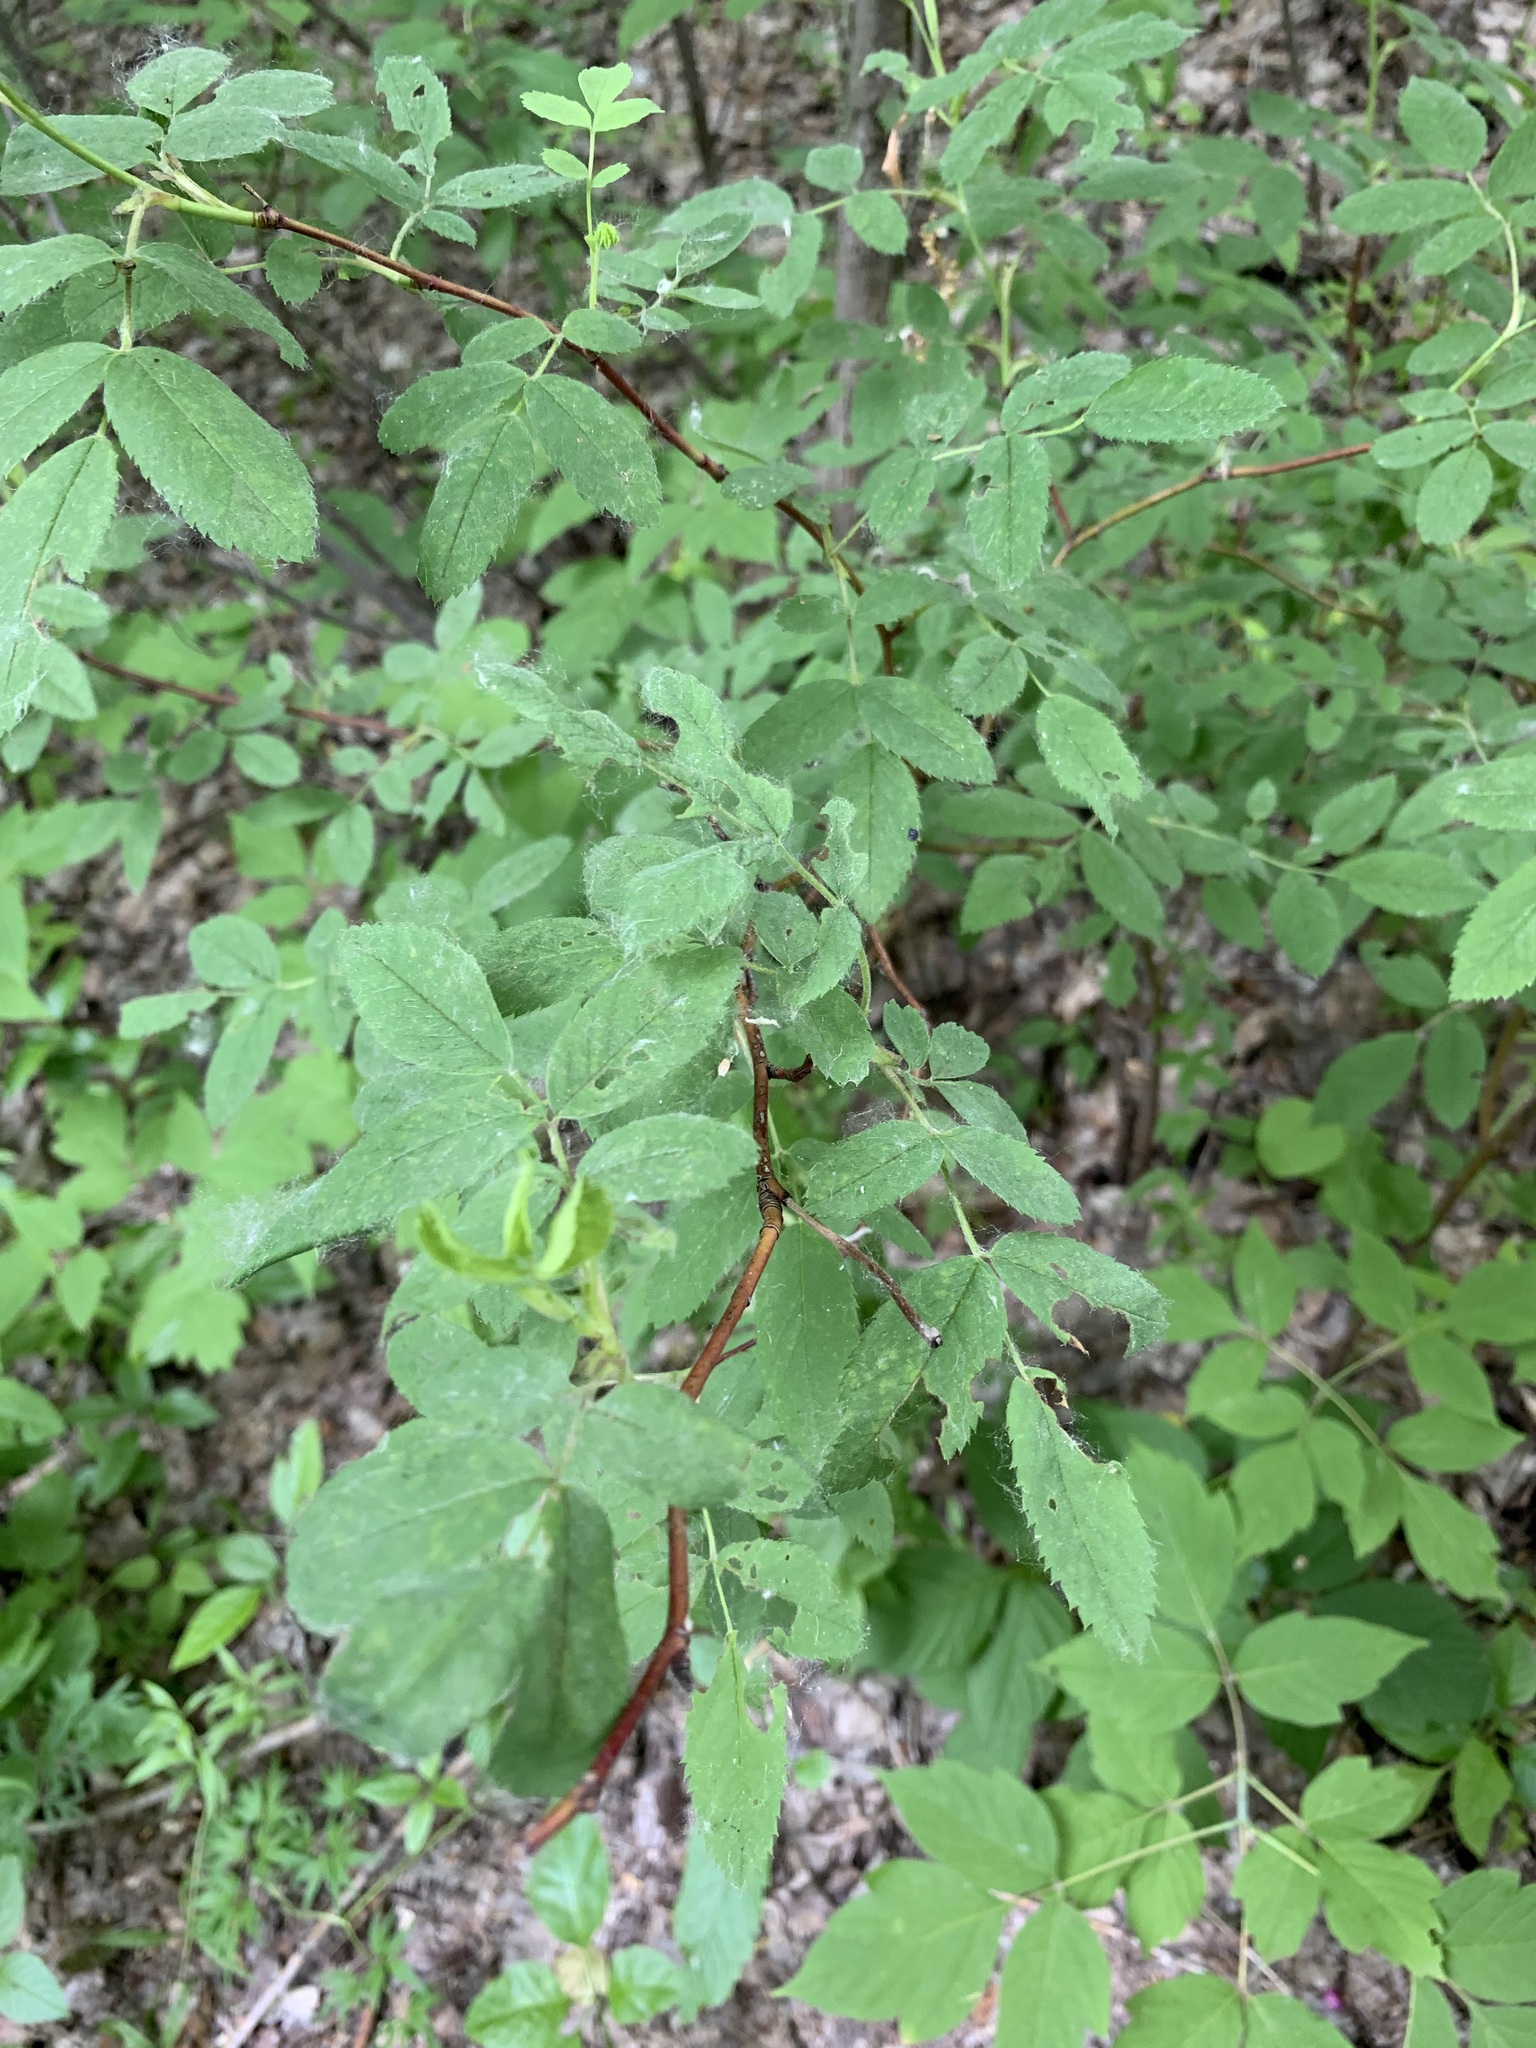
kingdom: Plantae
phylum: Tracheophyta
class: Magnoliopsida
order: Rosales
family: Rosaceae
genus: Rosa
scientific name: Rosa majalis
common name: Cinnamon rose
